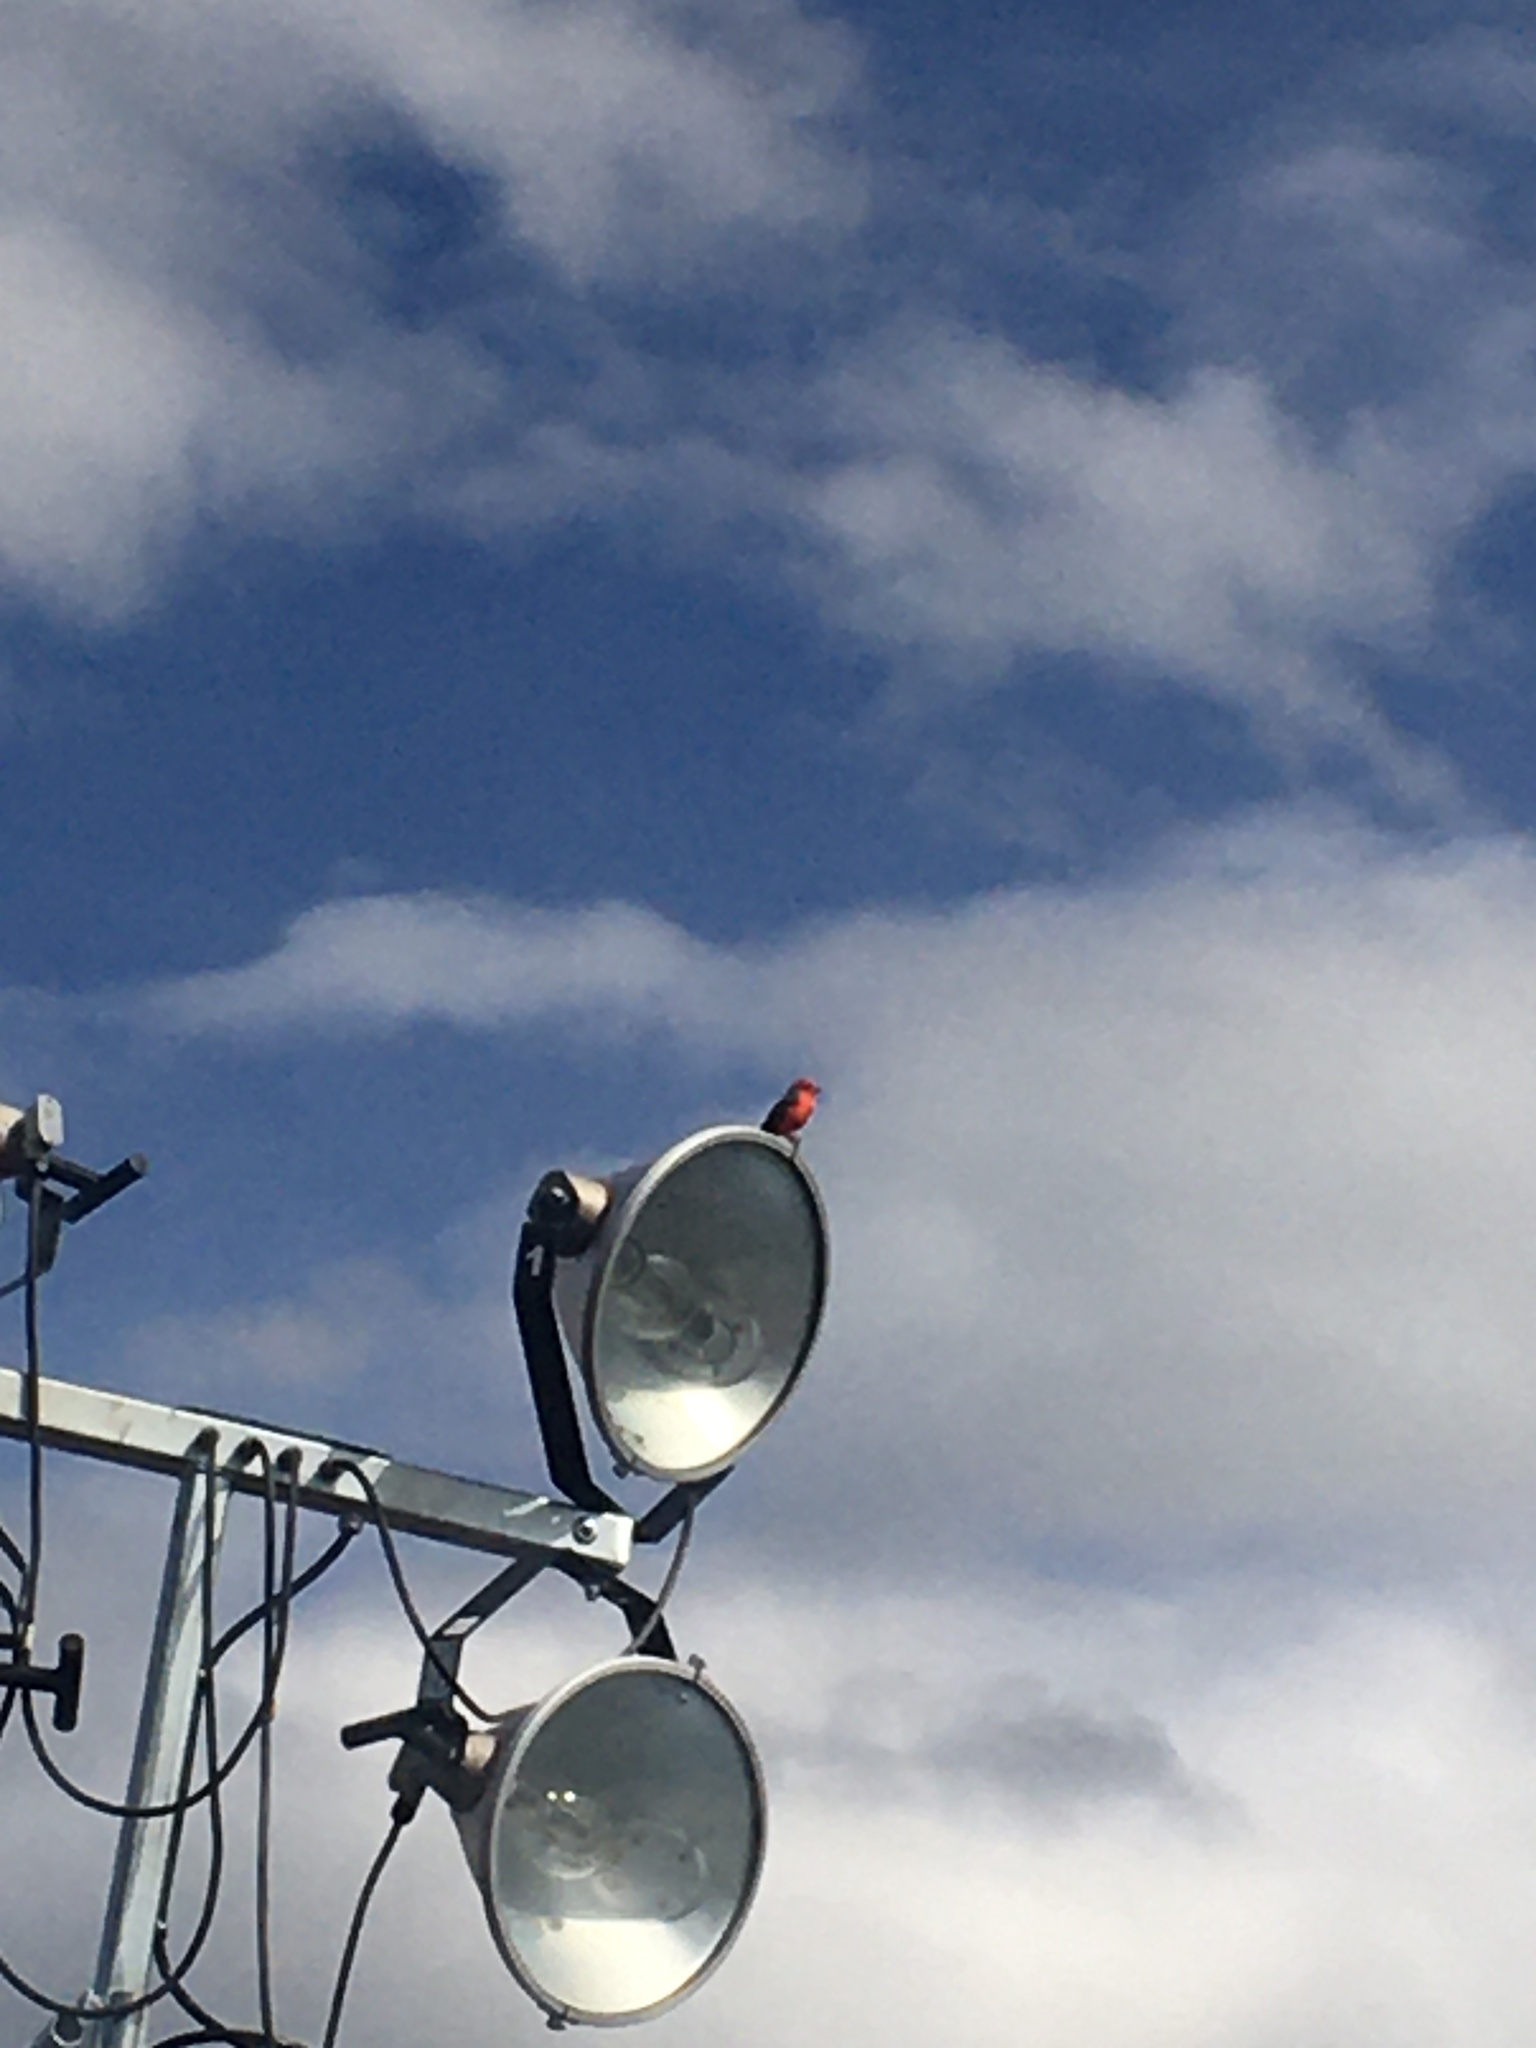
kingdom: Animalia
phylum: Chordata
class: Aves
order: Passeriformes
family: Tyrannidae
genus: Pyrocephalus
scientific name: Pyrocephalus rubinus
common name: Vermilion flycatcher
